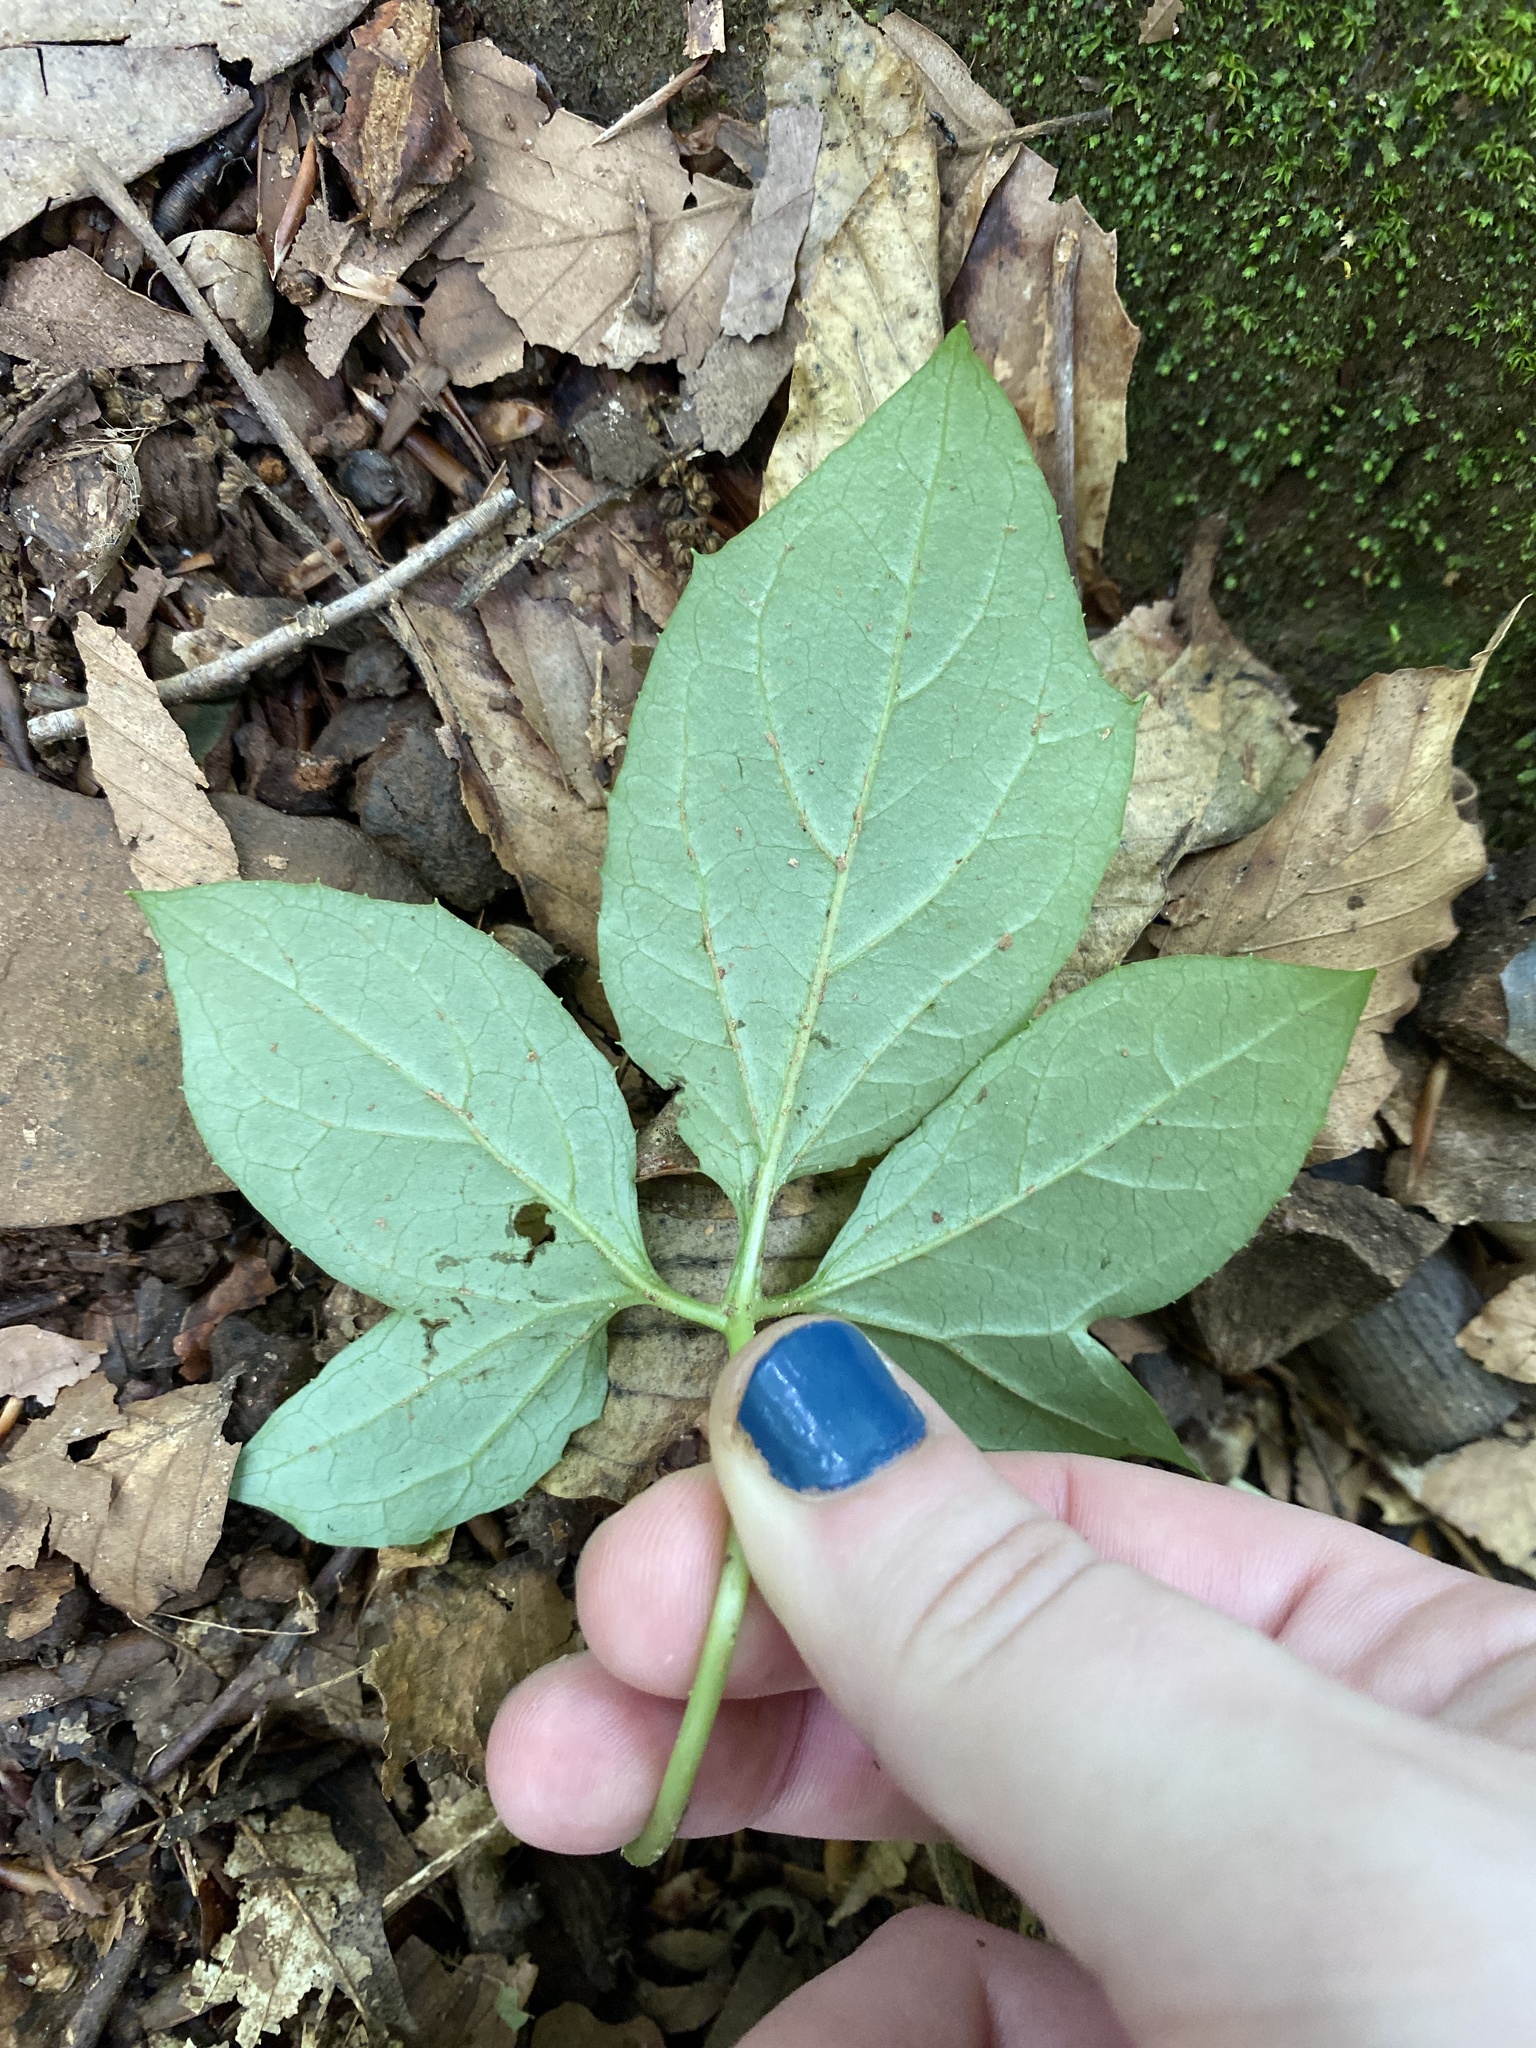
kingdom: Plantae
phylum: Tracheophyta
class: Magnoliopsida
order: Asterales
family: Asteraceae
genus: Nabalus
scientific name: Nabalus trifoliolatus
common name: Gall-of-the-earth
